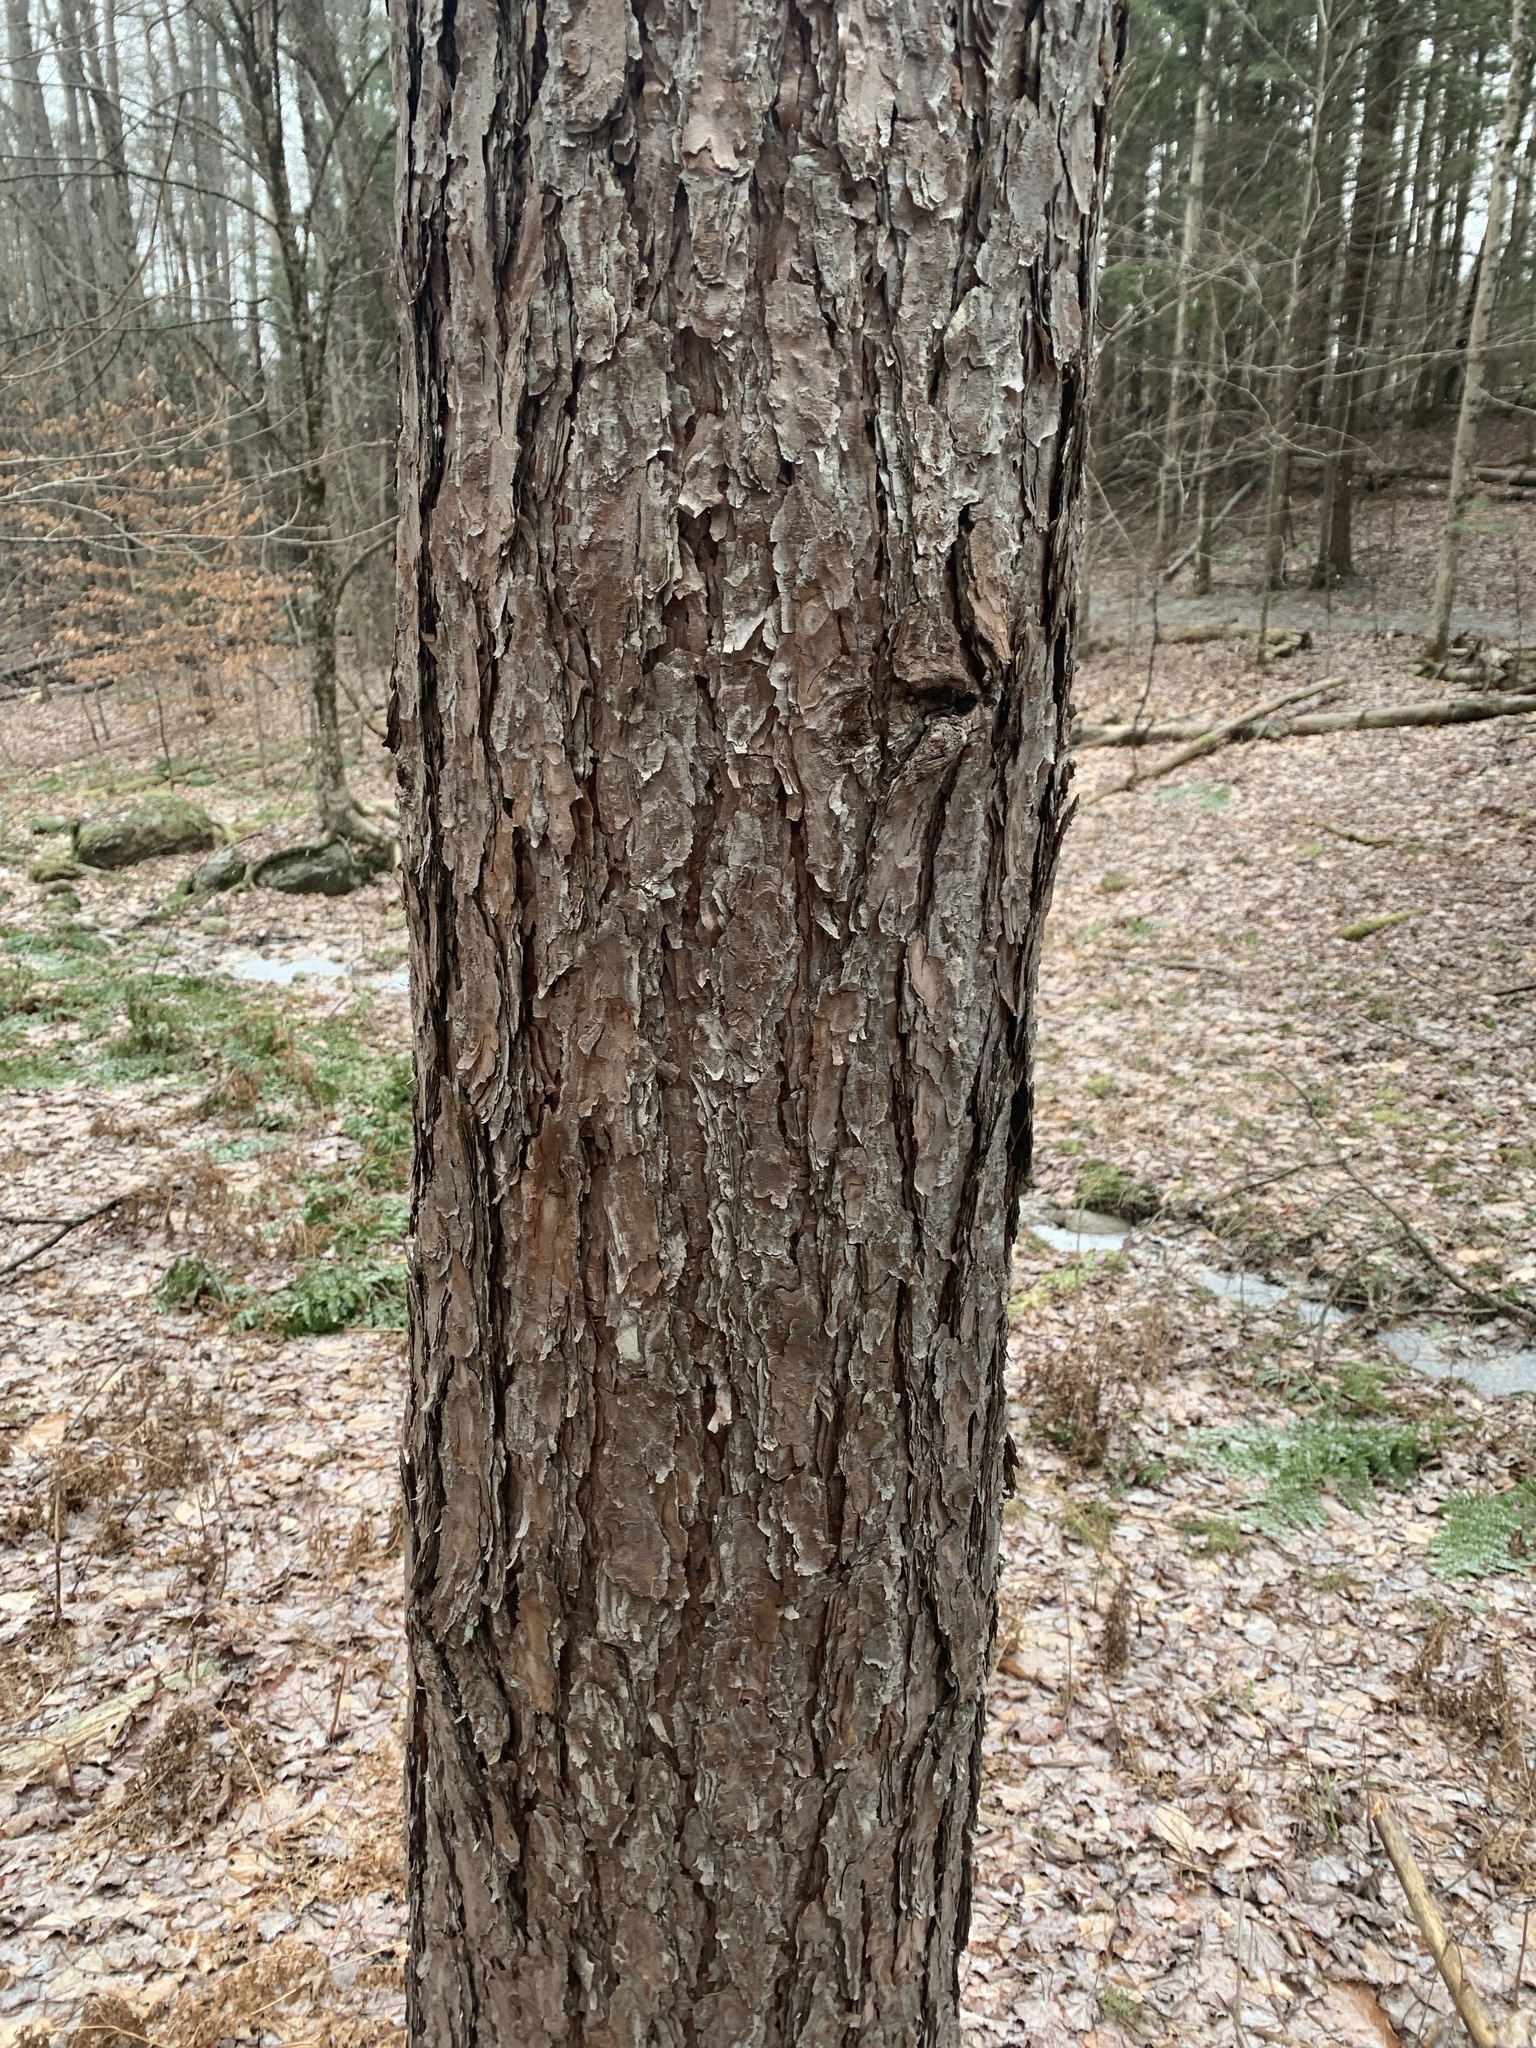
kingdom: Plantae
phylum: Tracheophyta
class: Pinopsida
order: Pinales
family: Pinaceae
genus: Pinus
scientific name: Pinus resinosa
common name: Norway pine
